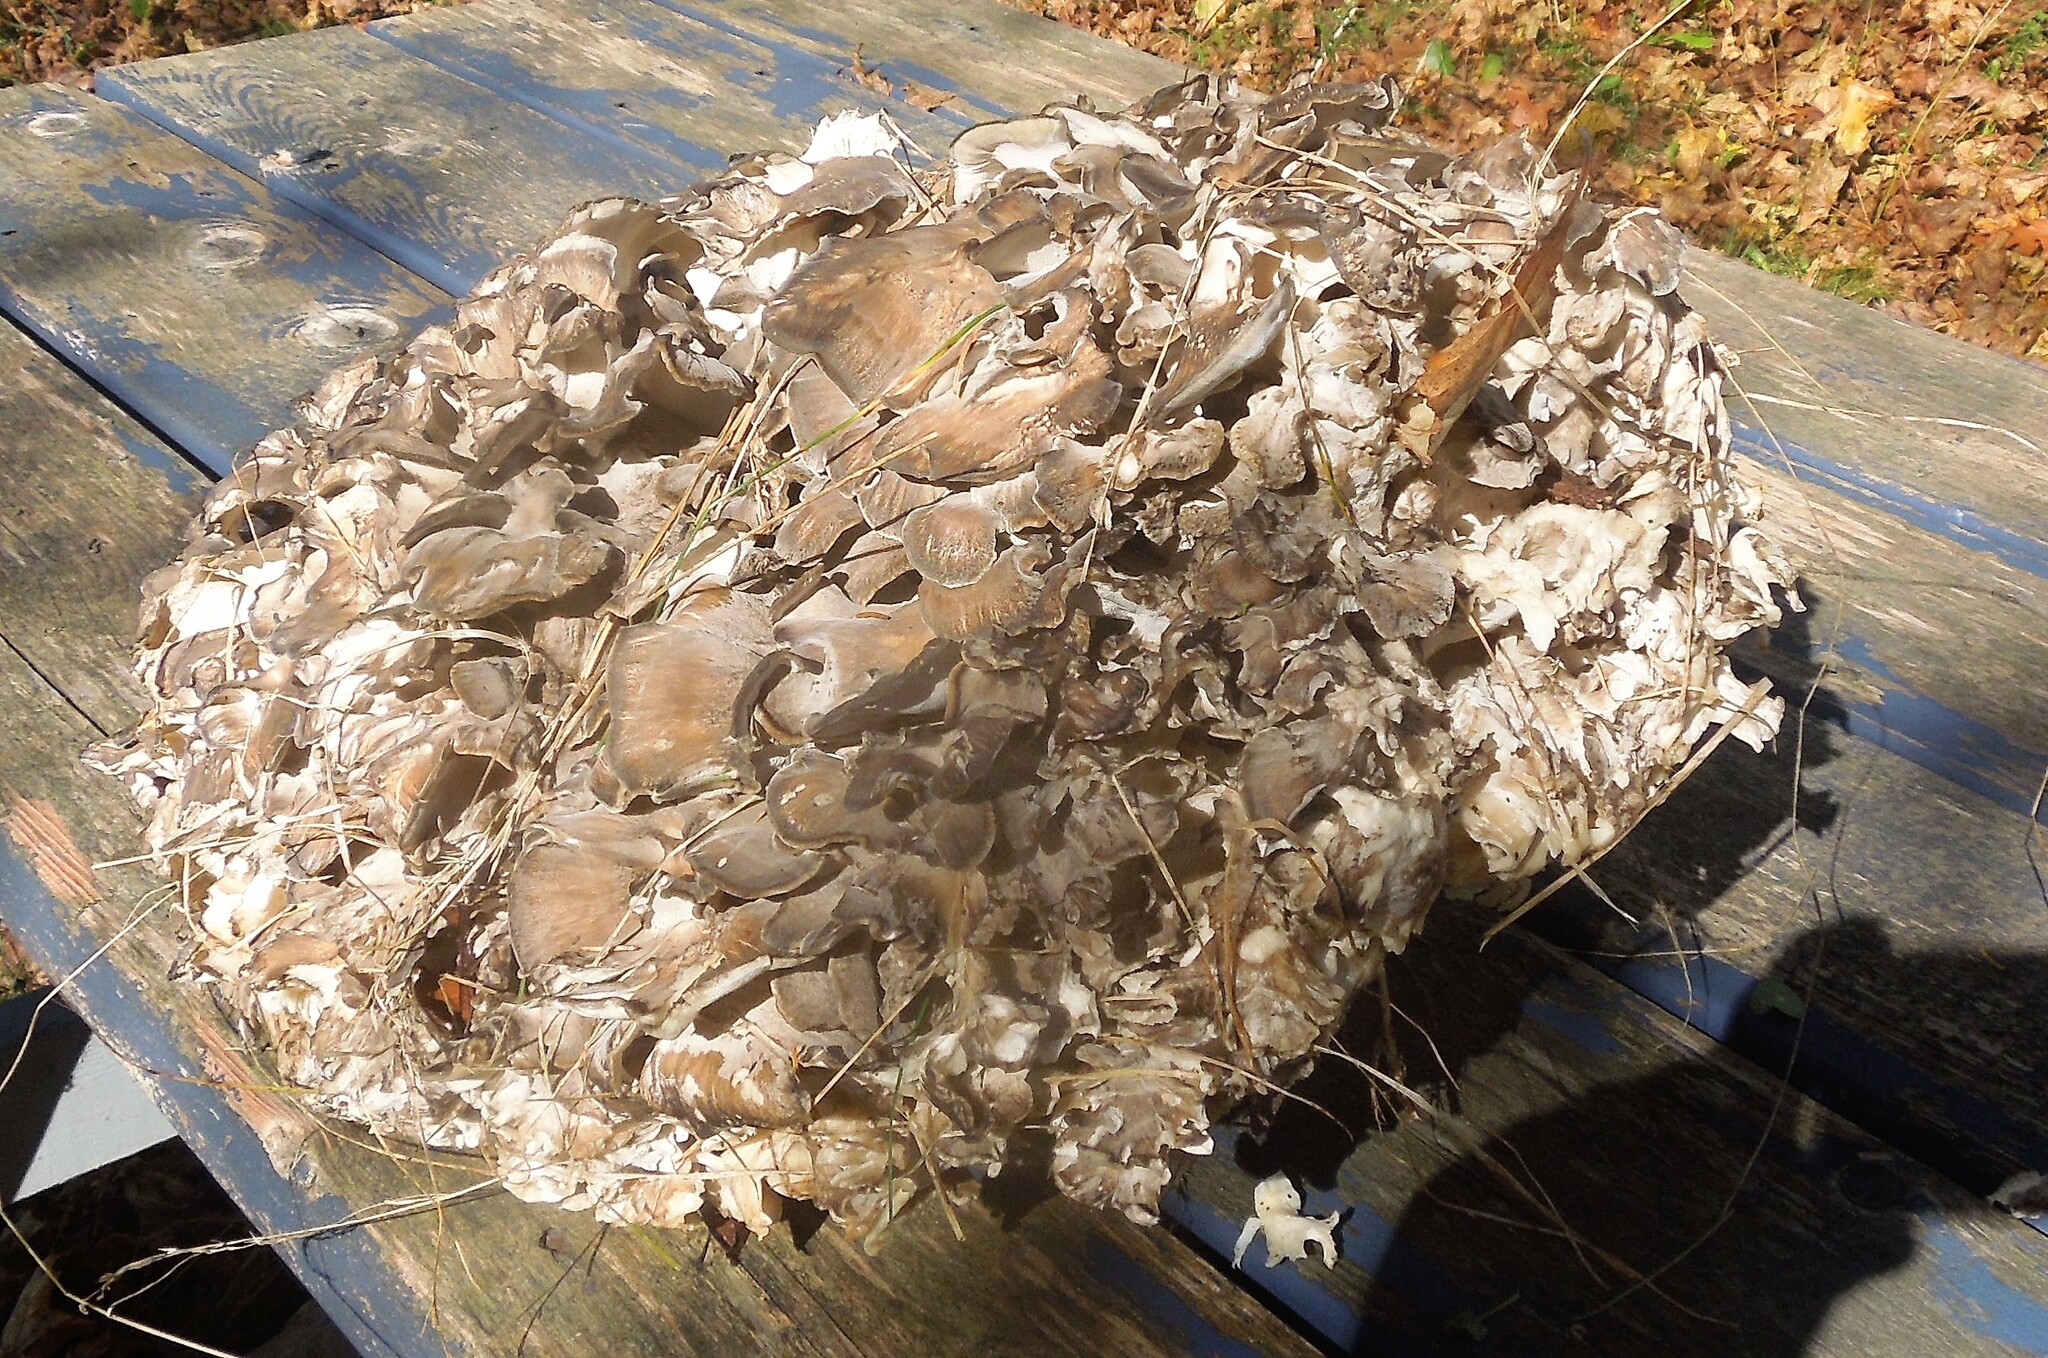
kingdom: Fungi
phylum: Basidiomycota
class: Agaricomycetes
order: Polyporales
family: Grifolaceae
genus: Grifola
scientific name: Grifola frondosa
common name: Hen of the woods
